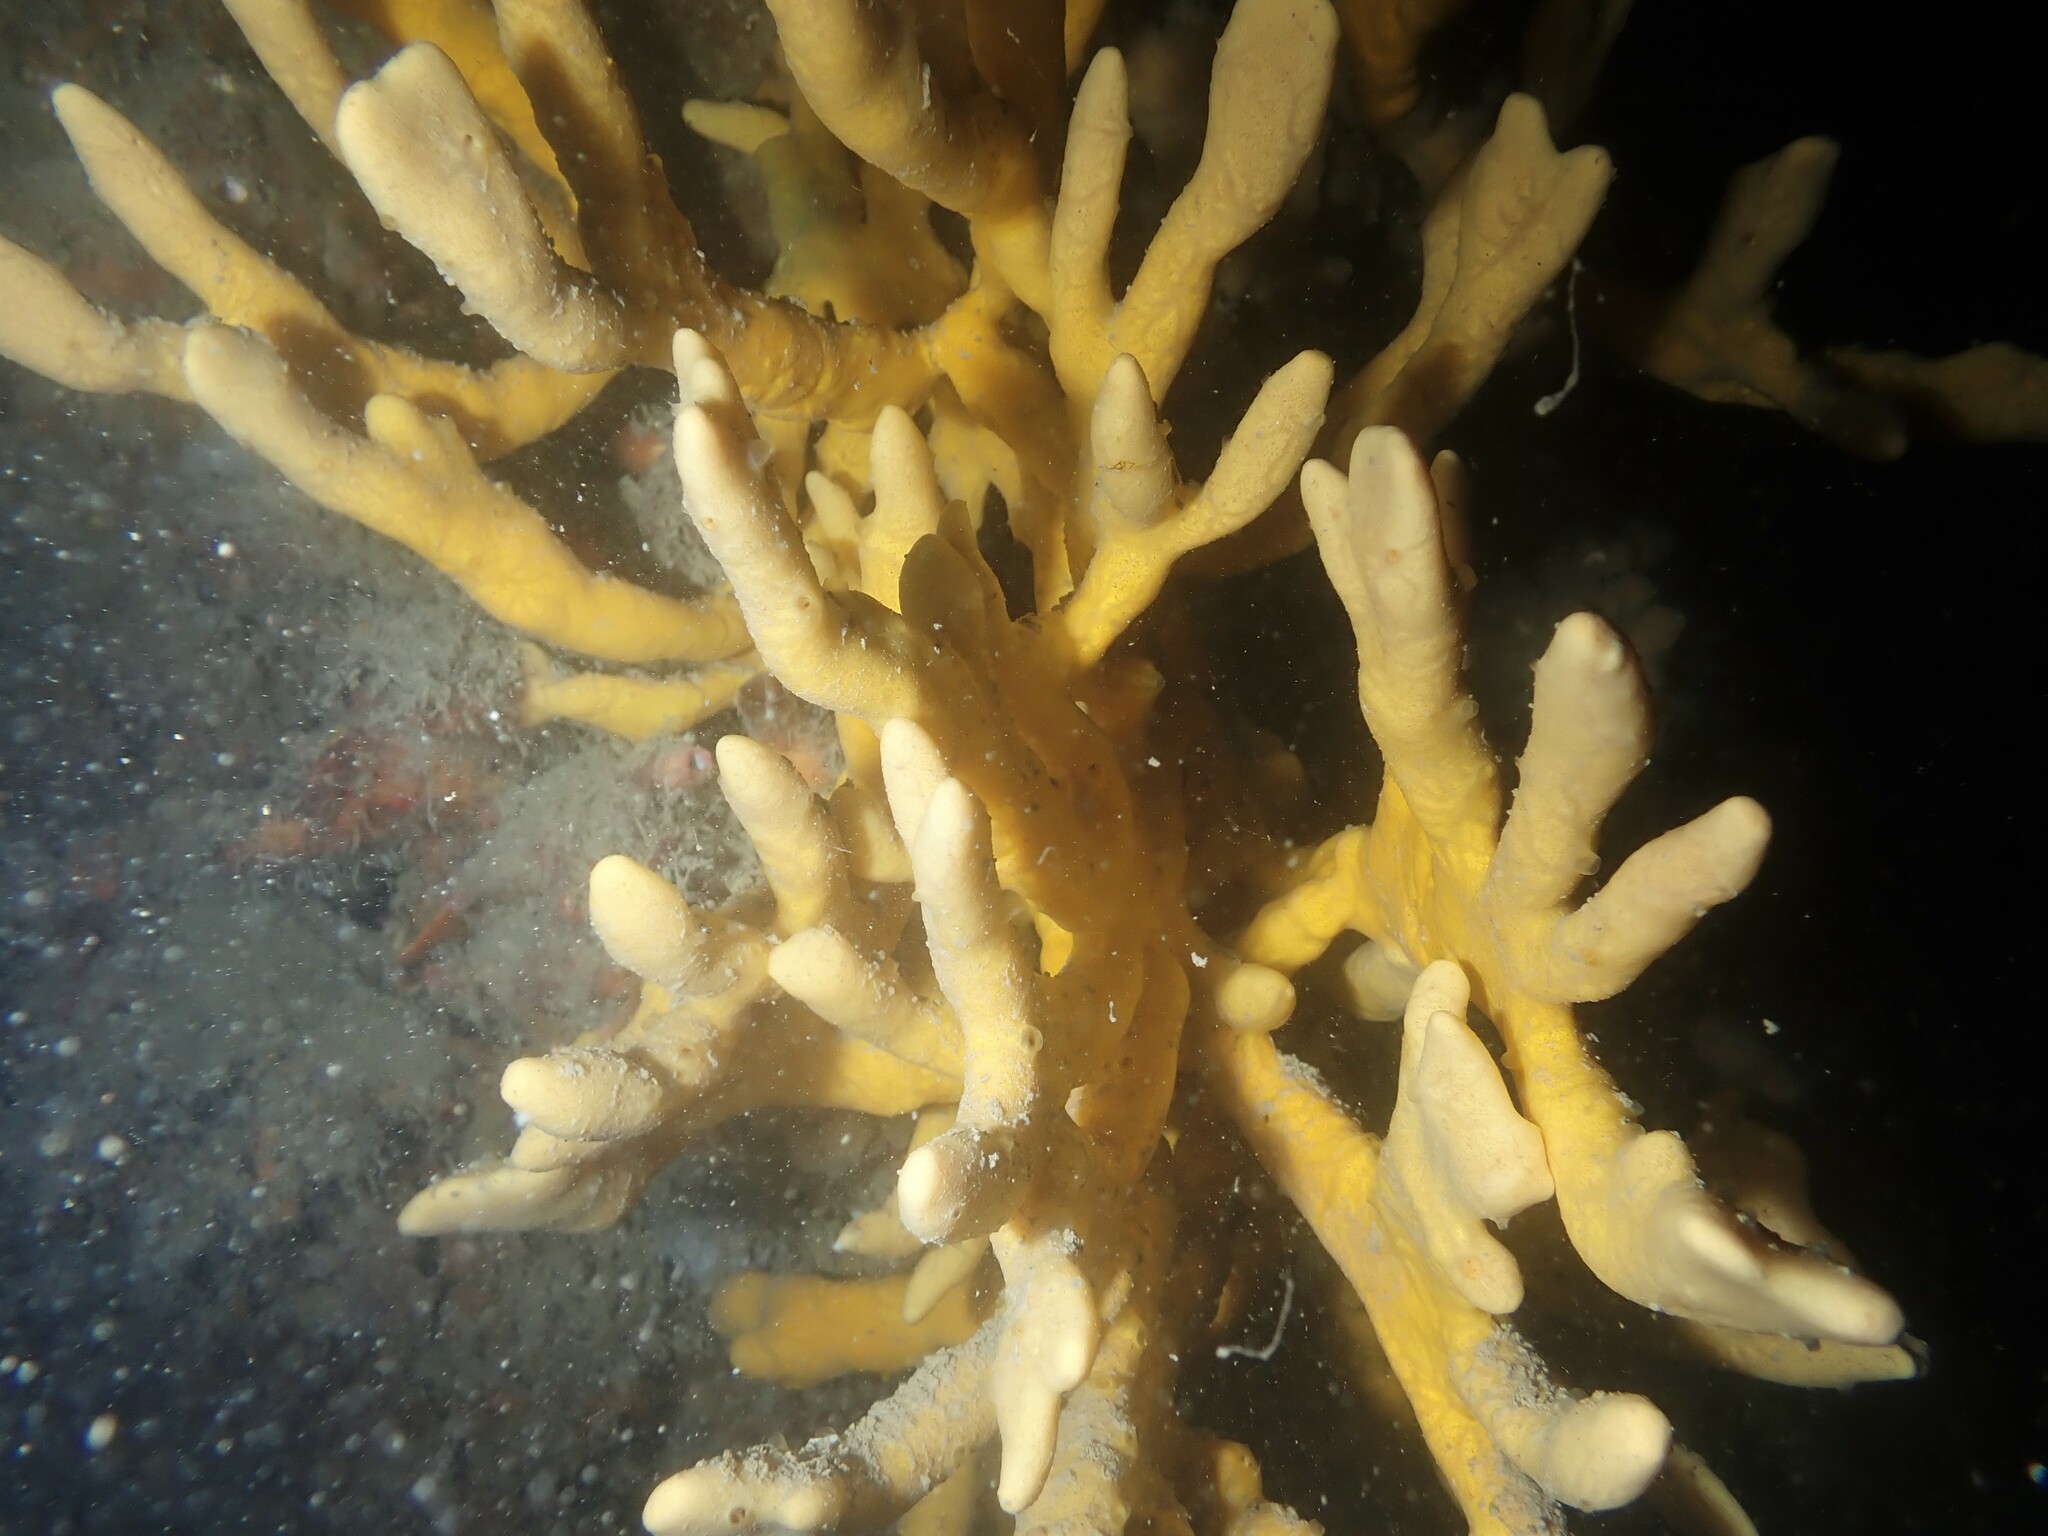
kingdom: Animalia
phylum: Porifera
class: Demospongiae
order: Poecilosclerida
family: Acarnidae
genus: Iophon
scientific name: Iophon minor
